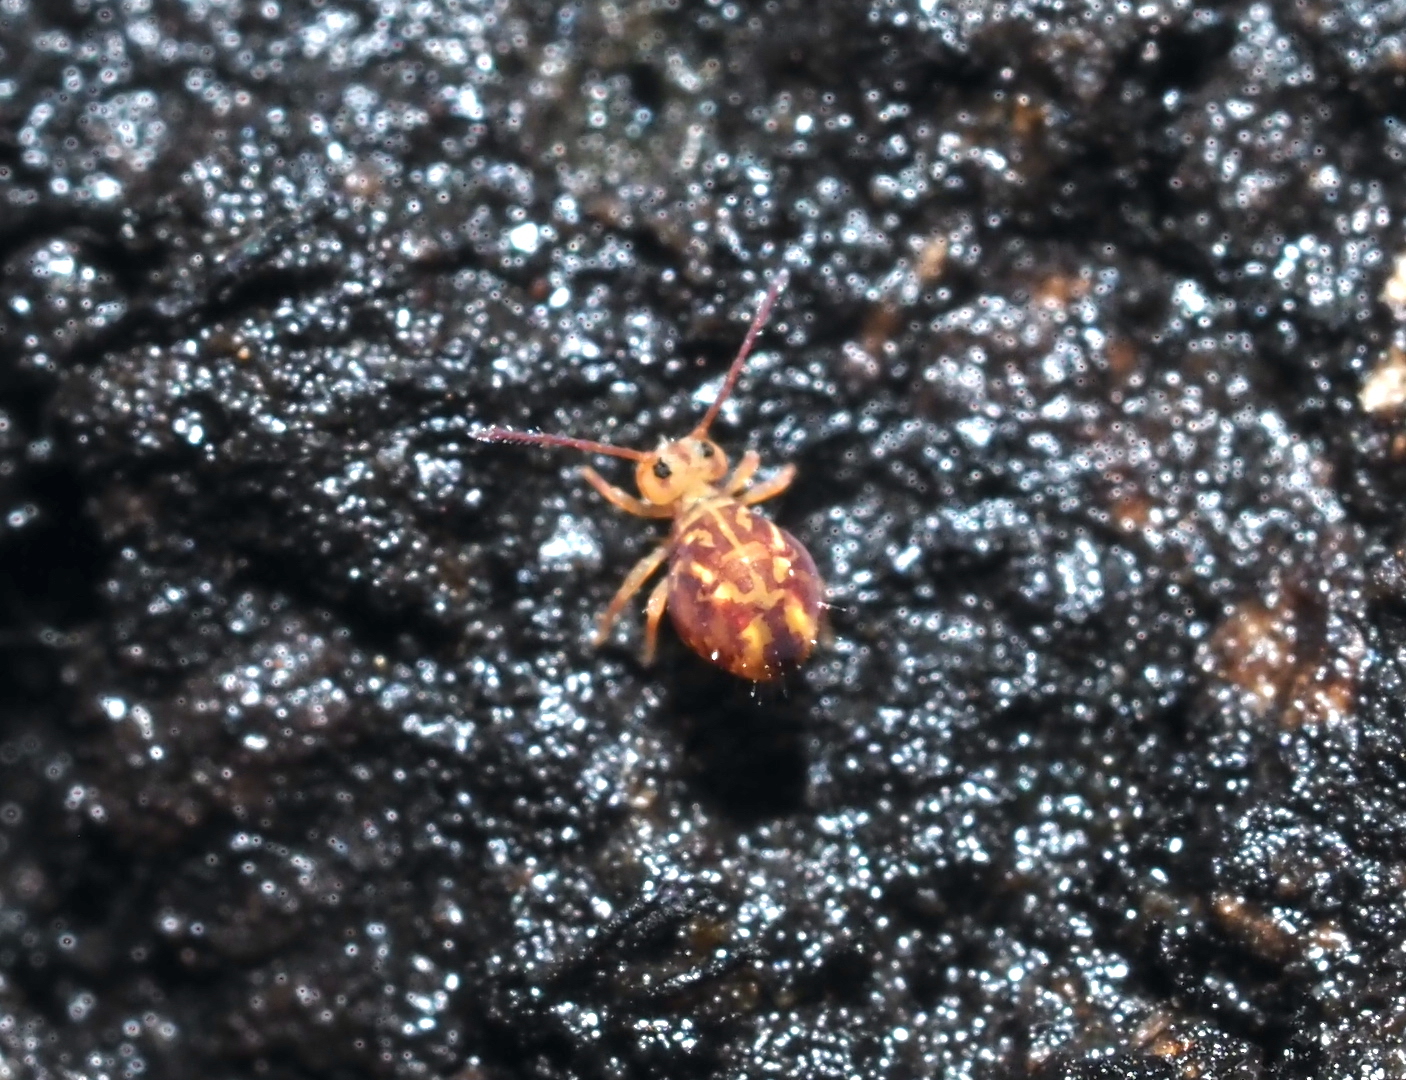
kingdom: Animalia
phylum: Arthropoda
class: Collembola
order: Symphypleona
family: Dicyrtomidae
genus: Dicyrtomina
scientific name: Dicyrtomina minuta
